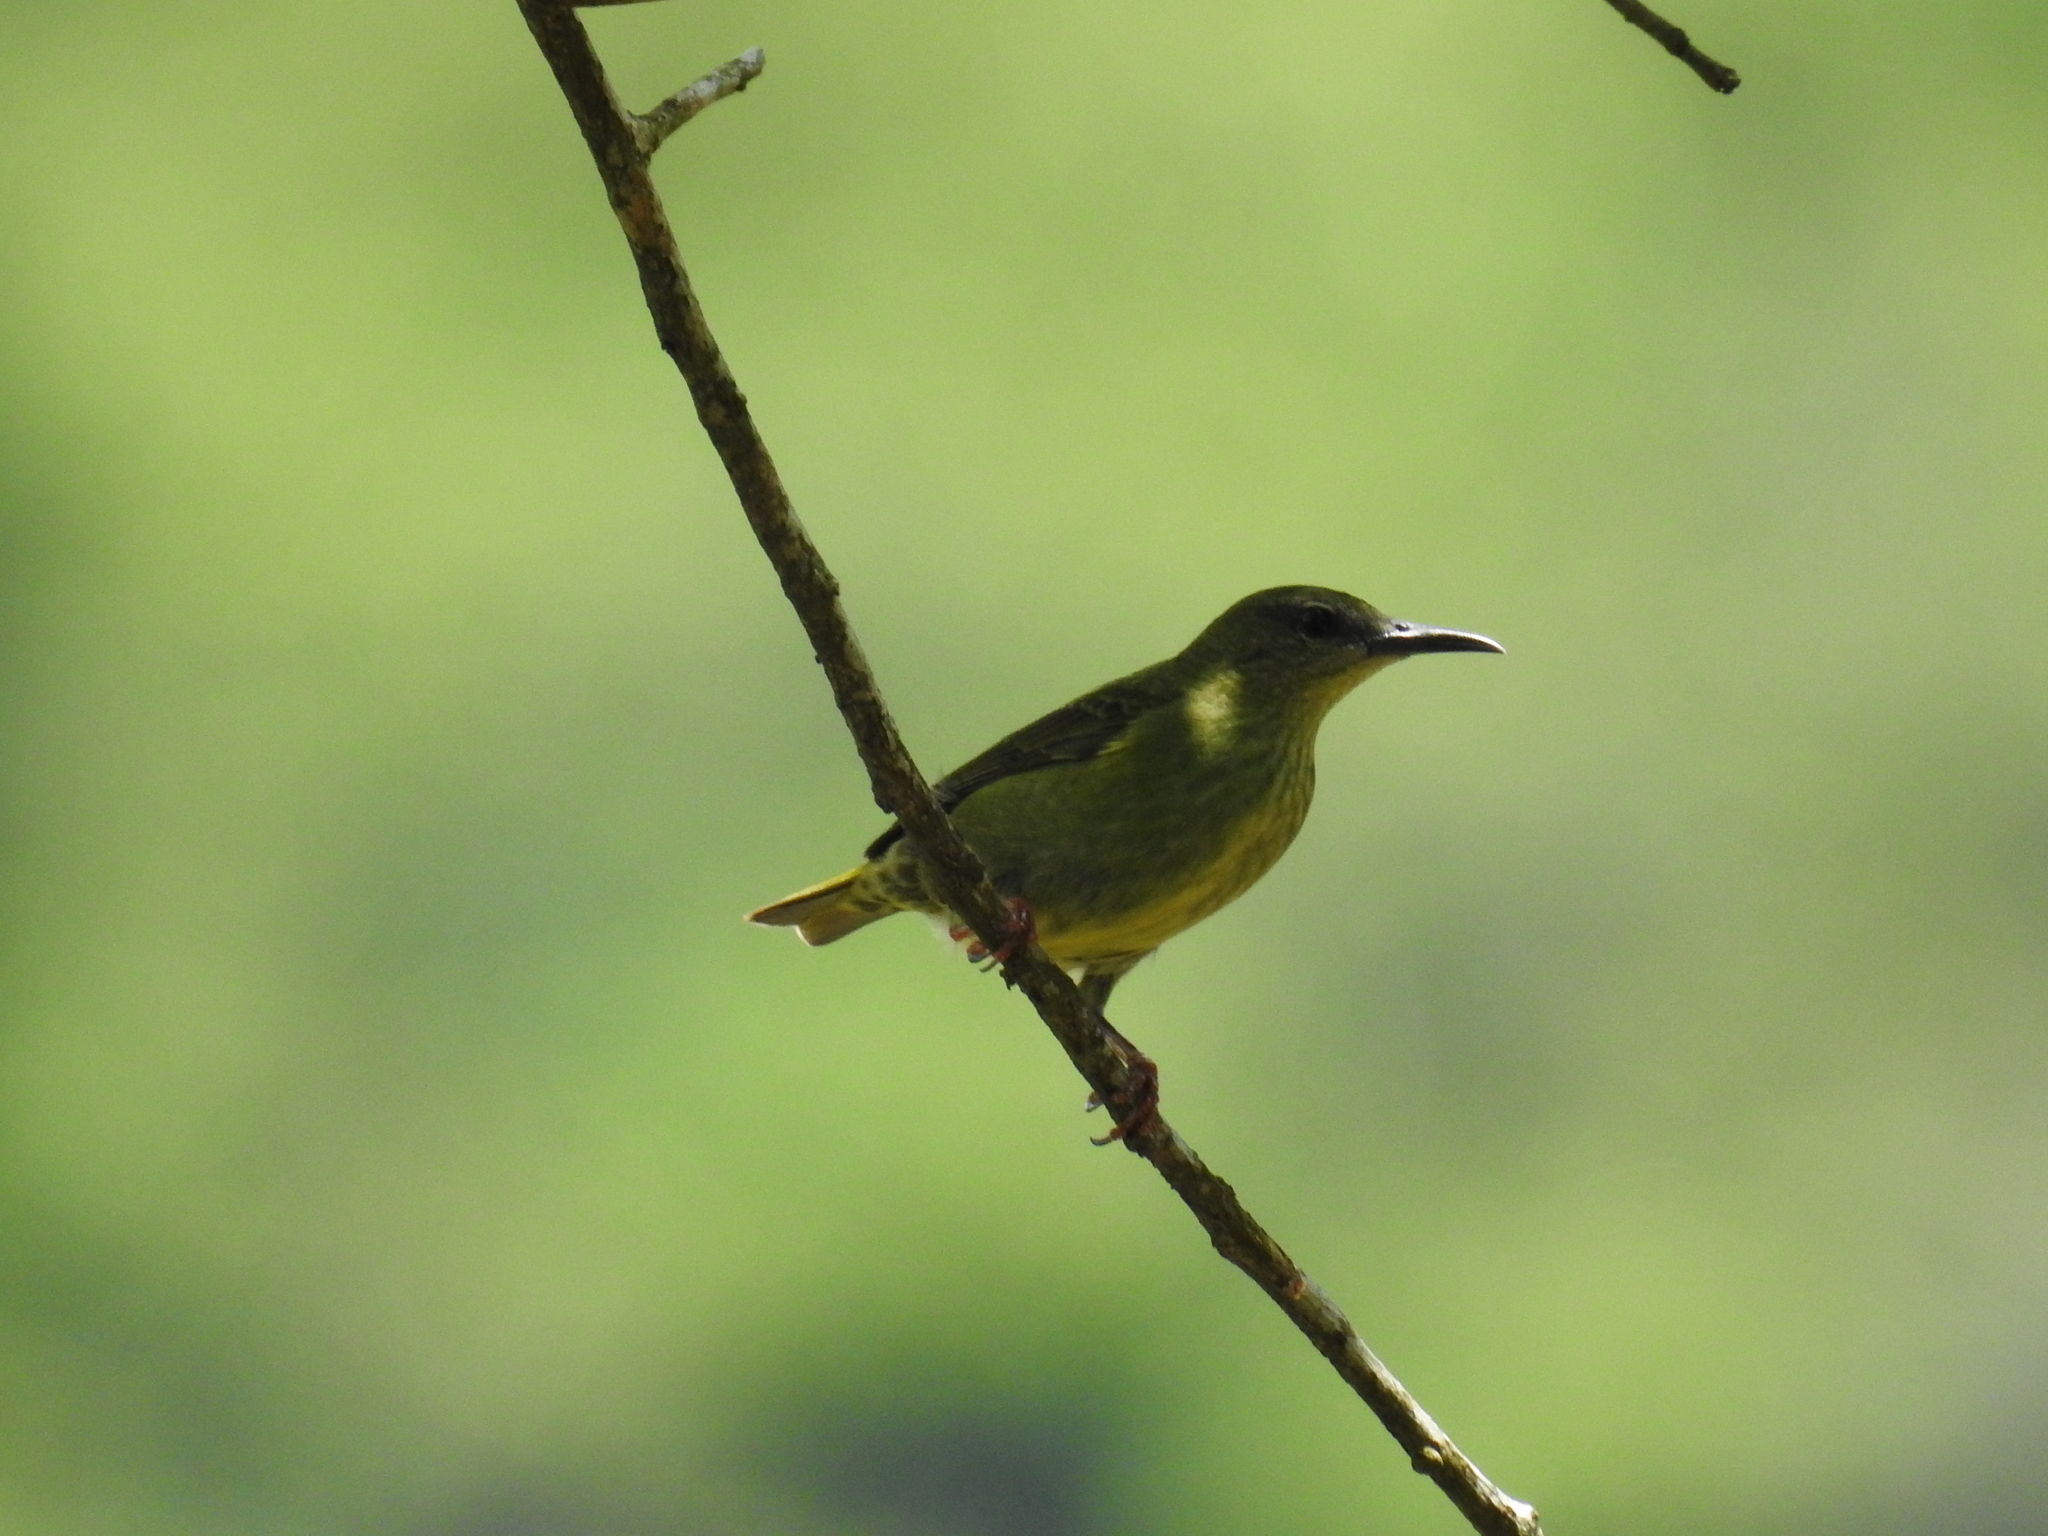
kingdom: Animalia
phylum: Chordata
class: Aves
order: Passeriformes
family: Thraupidae
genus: Cyanerpes
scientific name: Cyanerpes cyaneus
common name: Red-legged honeycreeper
